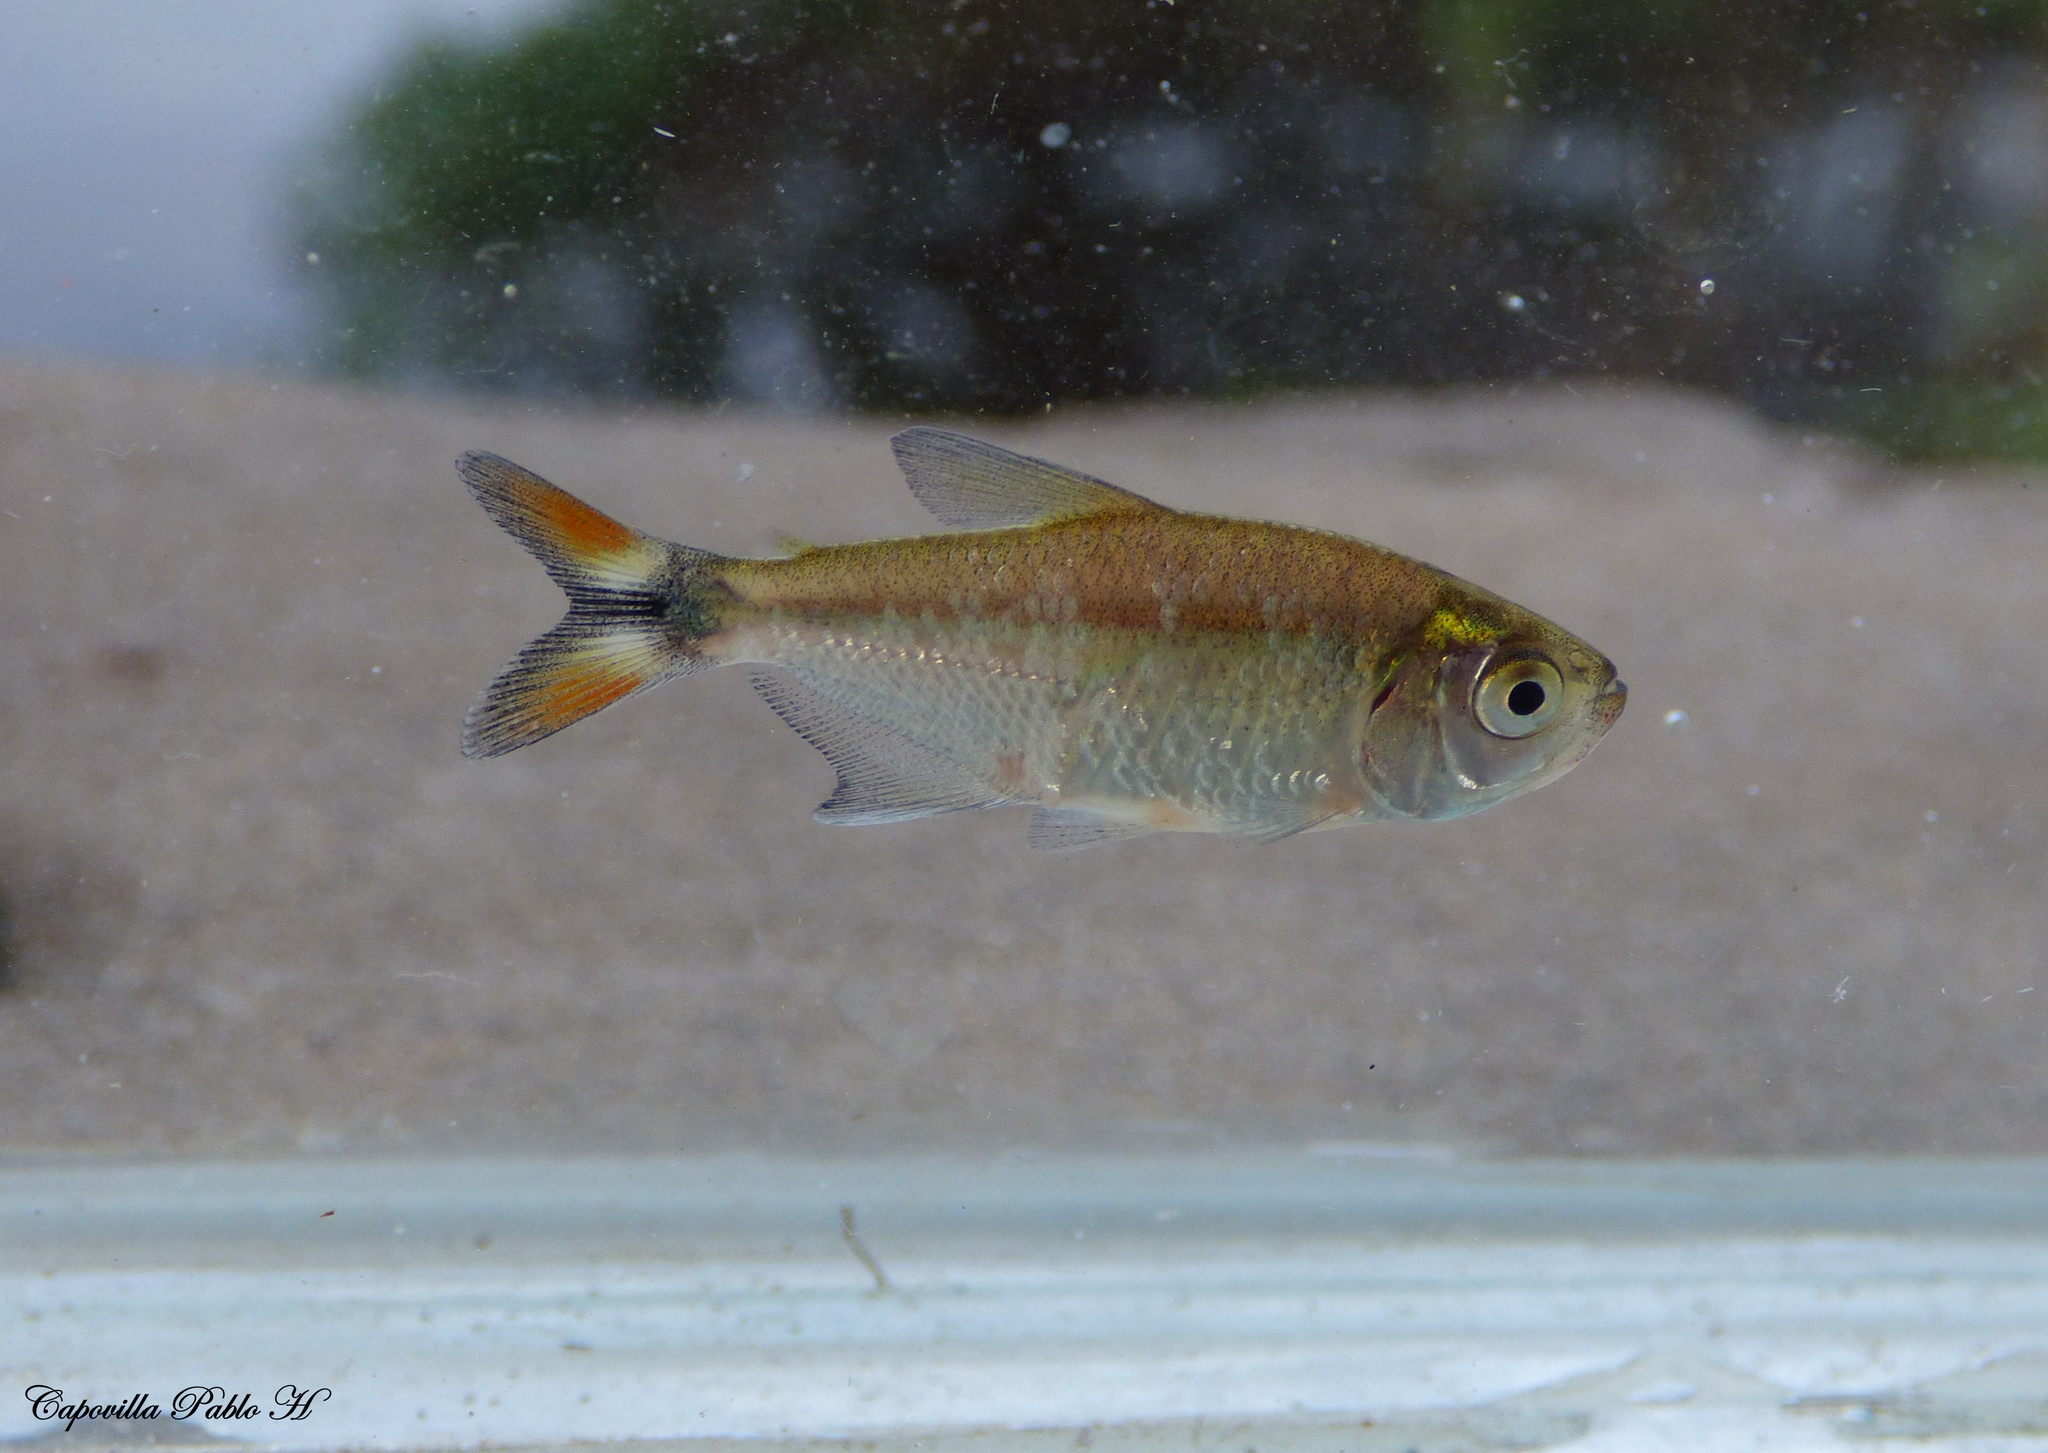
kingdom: Animalia
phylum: Chordata
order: Characiformes
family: Characidae
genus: Hyphessobrycon
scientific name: Hyphessobrycon anisitsi
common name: Buenos aires tetra
